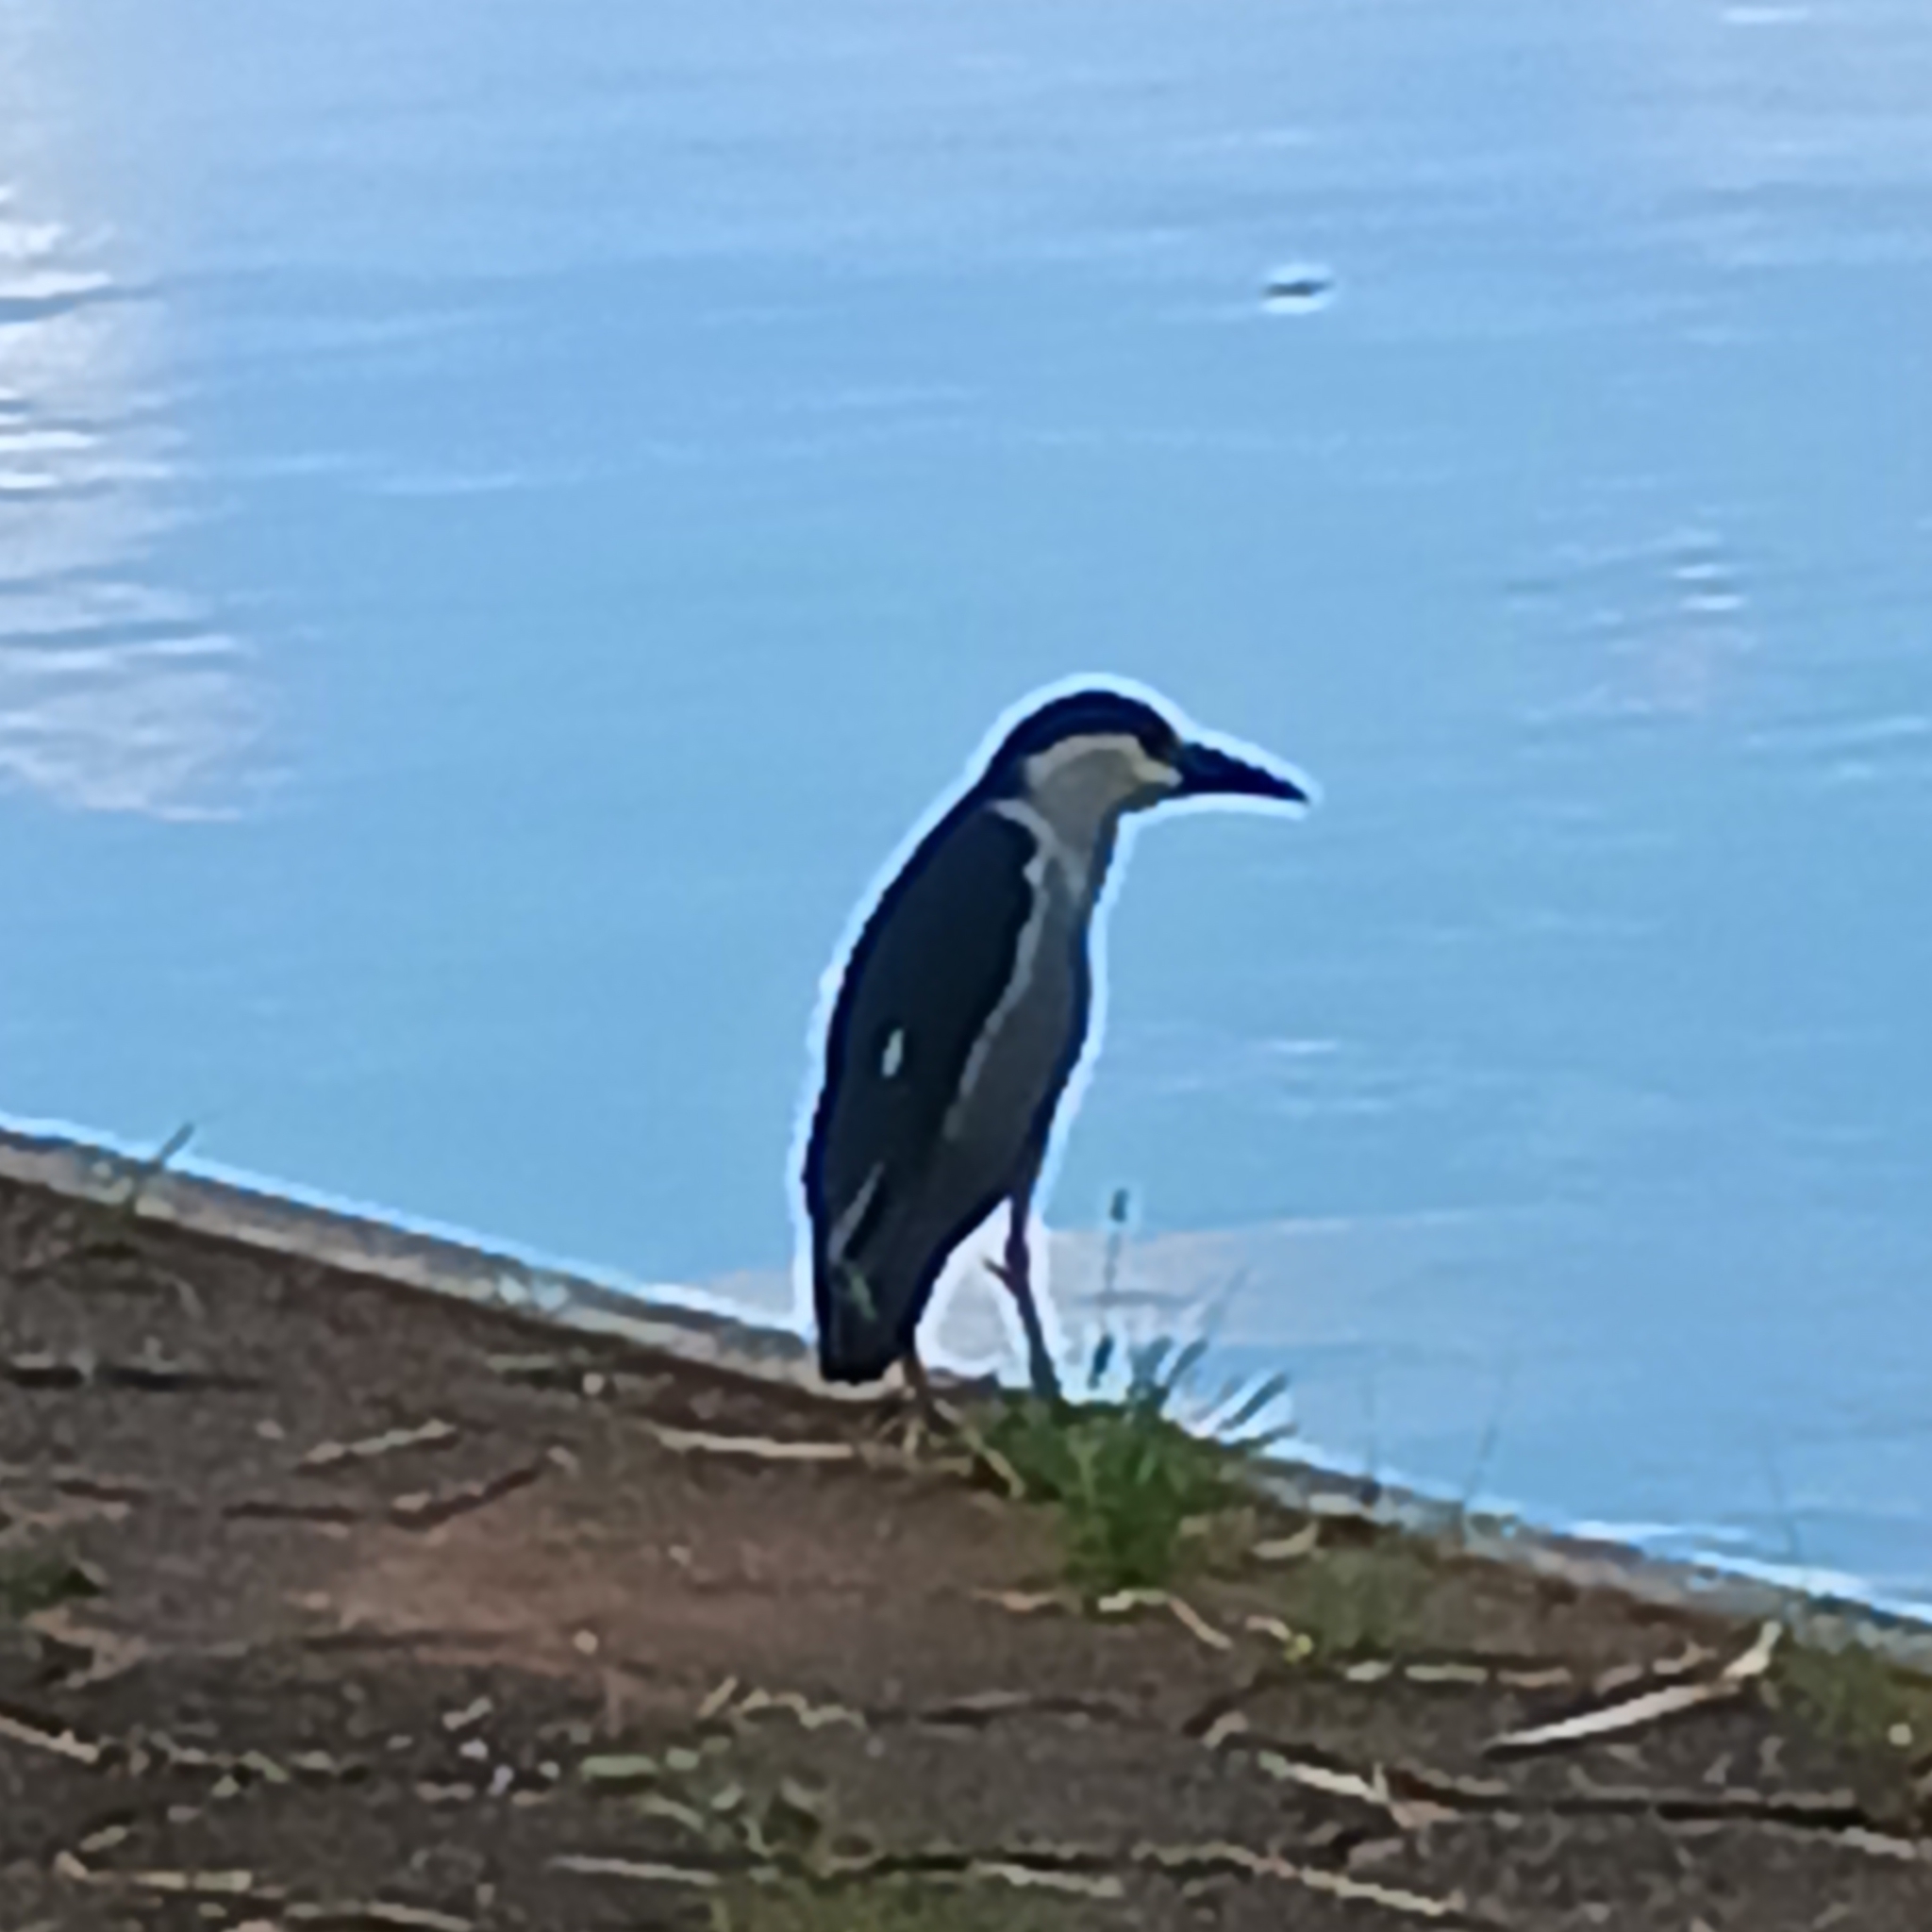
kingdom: Animalia
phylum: Chordata
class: Aves
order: Pelecaniformes
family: Ardeidae
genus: Nycticorax
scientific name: Nycticorax nycticorax
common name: Black-crowned night heron
